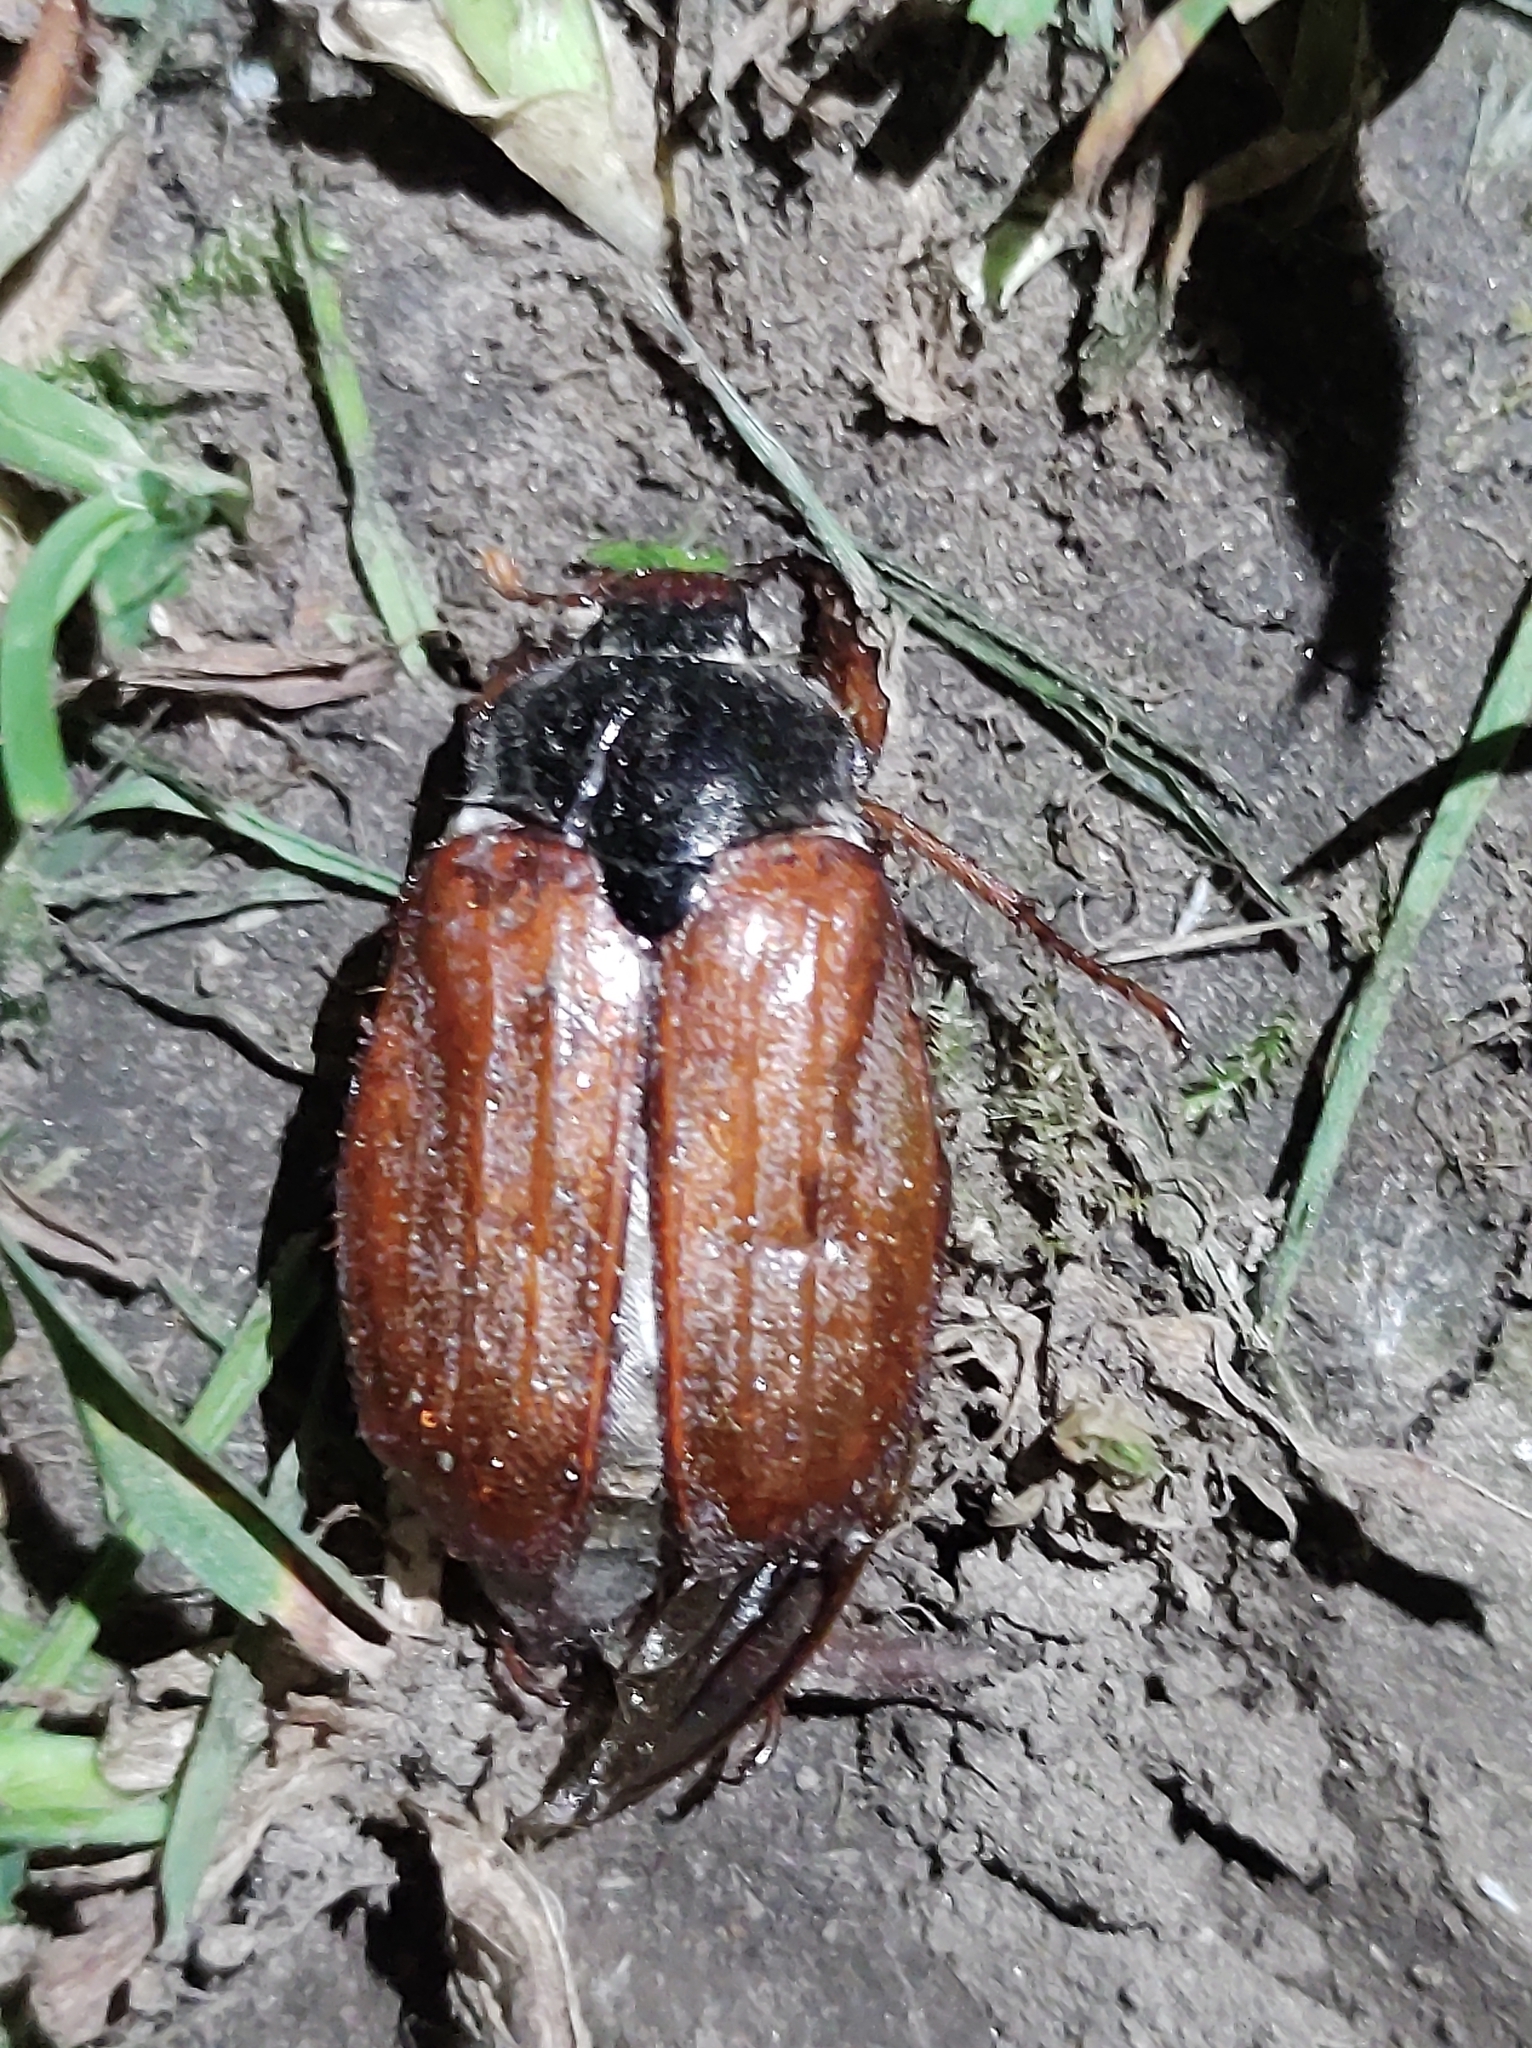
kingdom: Animalia
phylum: Arthropoda
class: Insecta
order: Coleoptera
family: Scarabaeidae
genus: Melolontha
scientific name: Melolontha melolontha
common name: Cockchafer maybeetle
